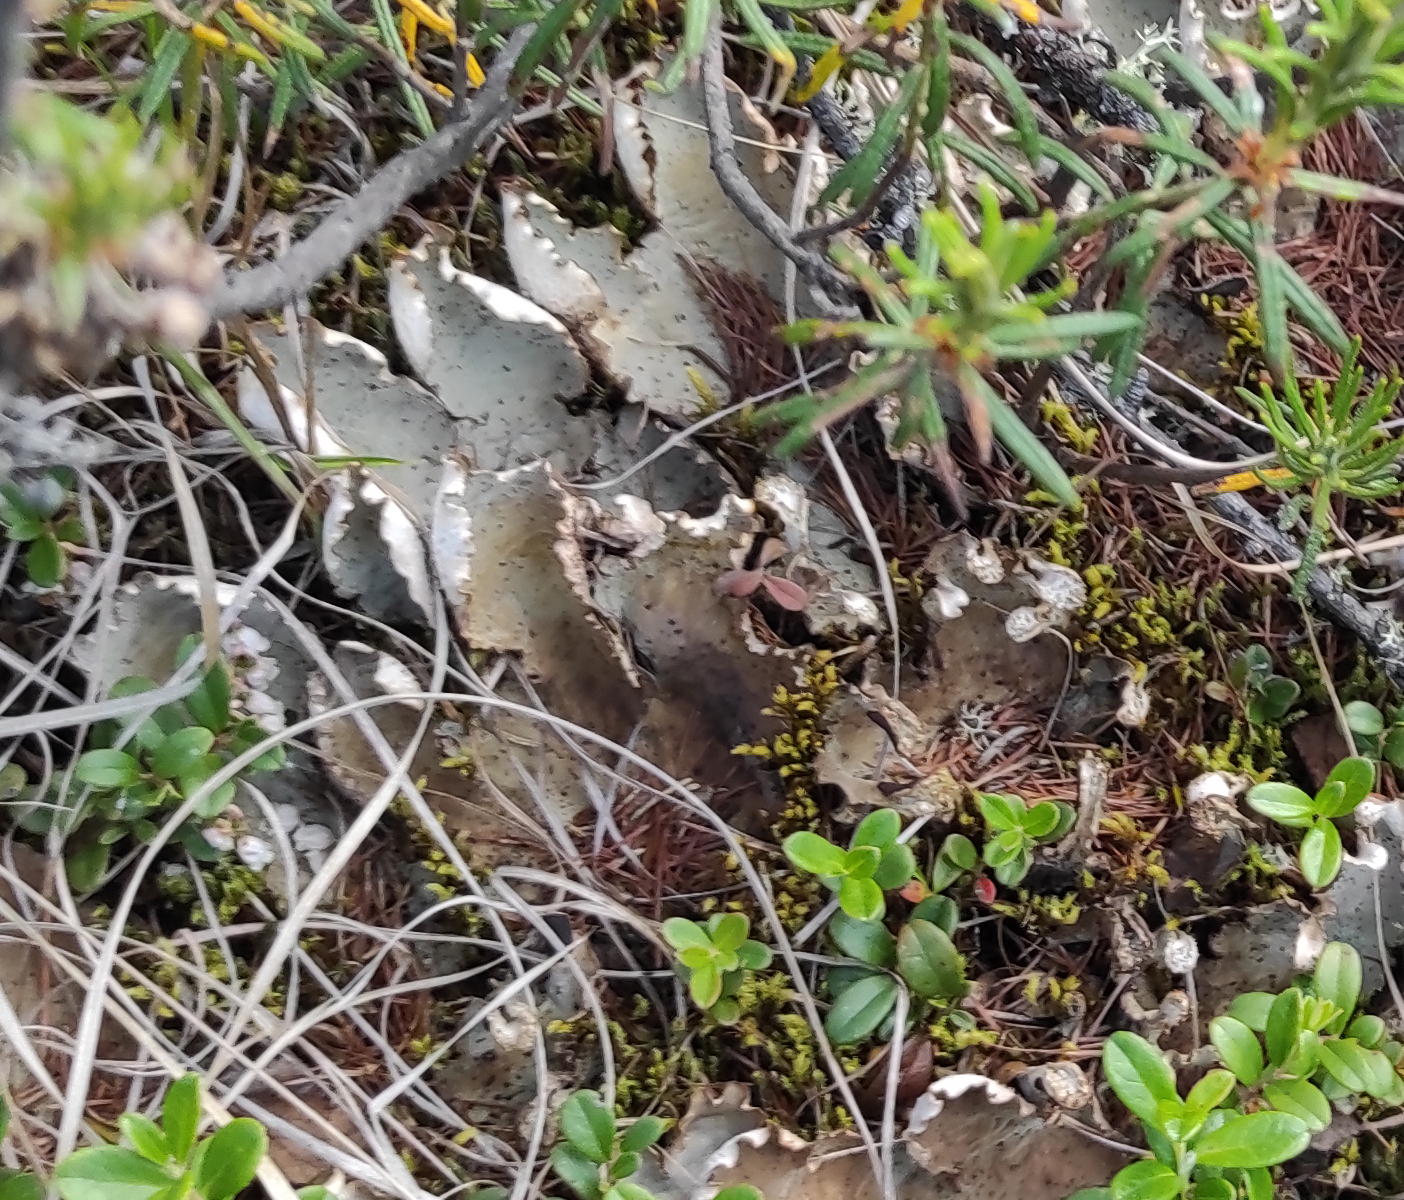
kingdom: Plantae
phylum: Tracheophyta
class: Magnoliopsida
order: Ericales
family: Ericaceae
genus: Vaccinium
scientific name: Vaccinium vitis-idaea
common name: Cowberry
